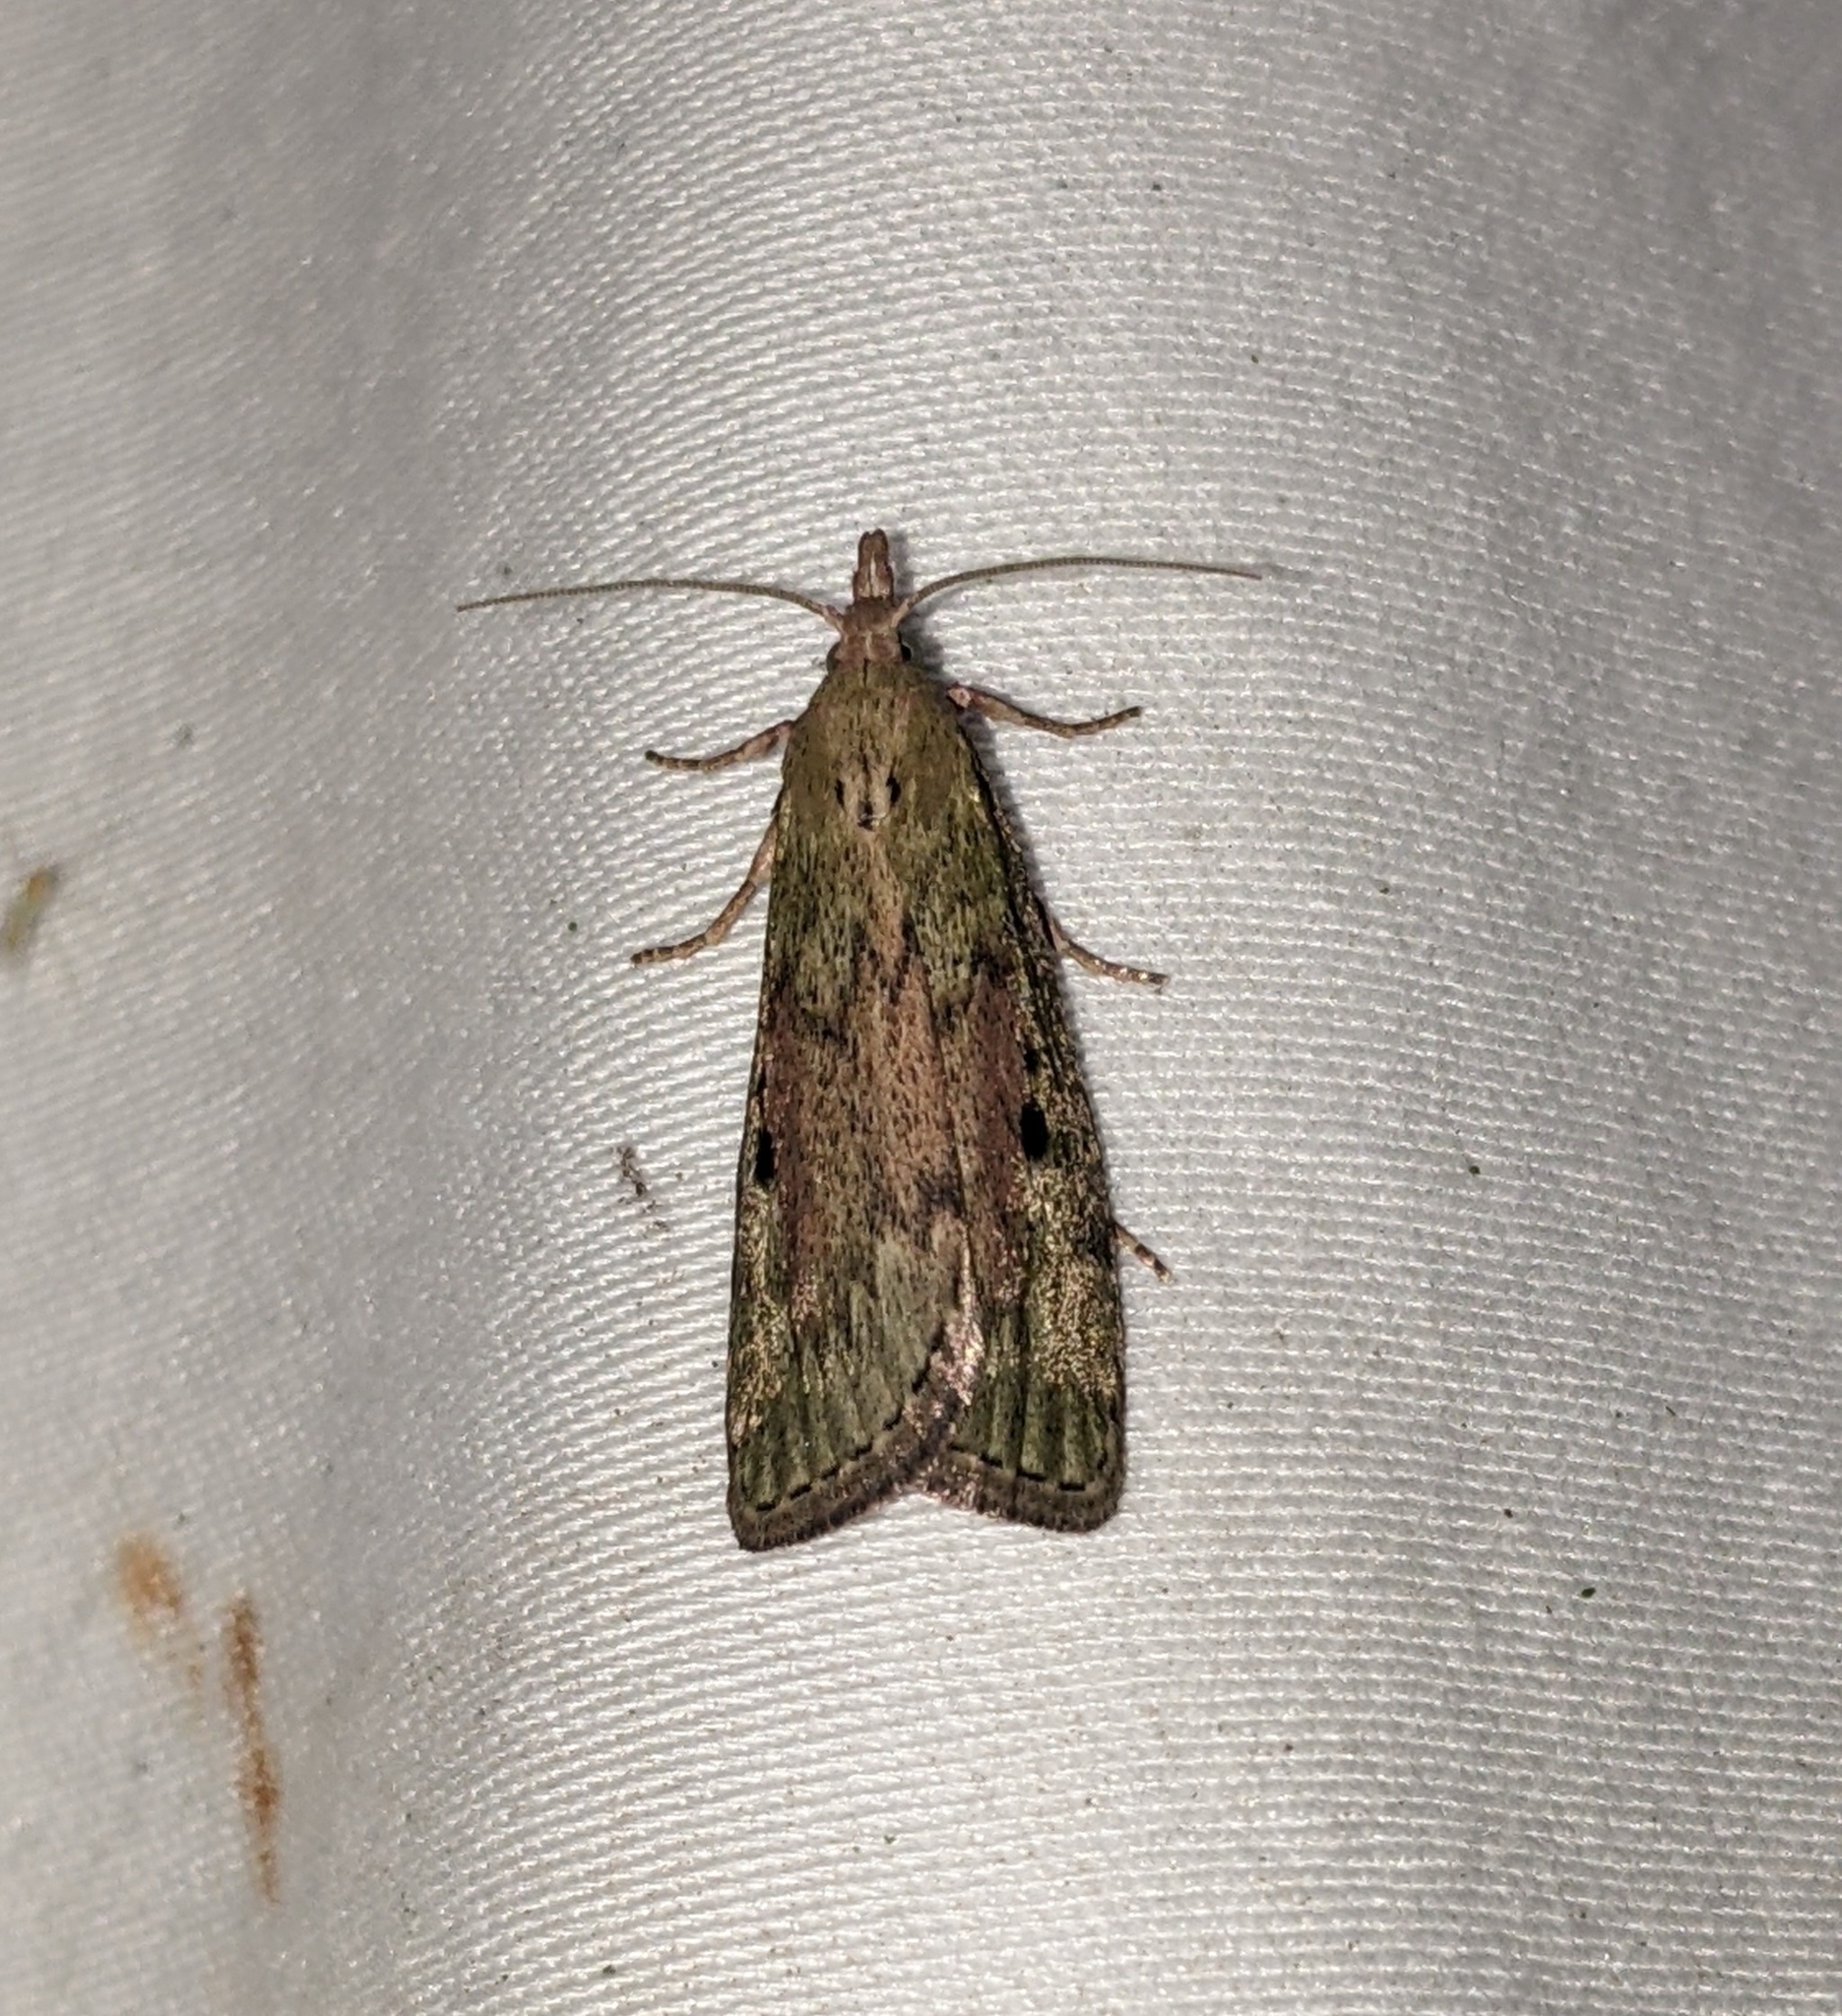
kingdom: Animalia
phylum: Arthropoda
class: Insecta
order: Lepidoptera
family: Pyralidae
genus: Aphomia
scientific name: Aphomia sociella
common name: Bee moth
